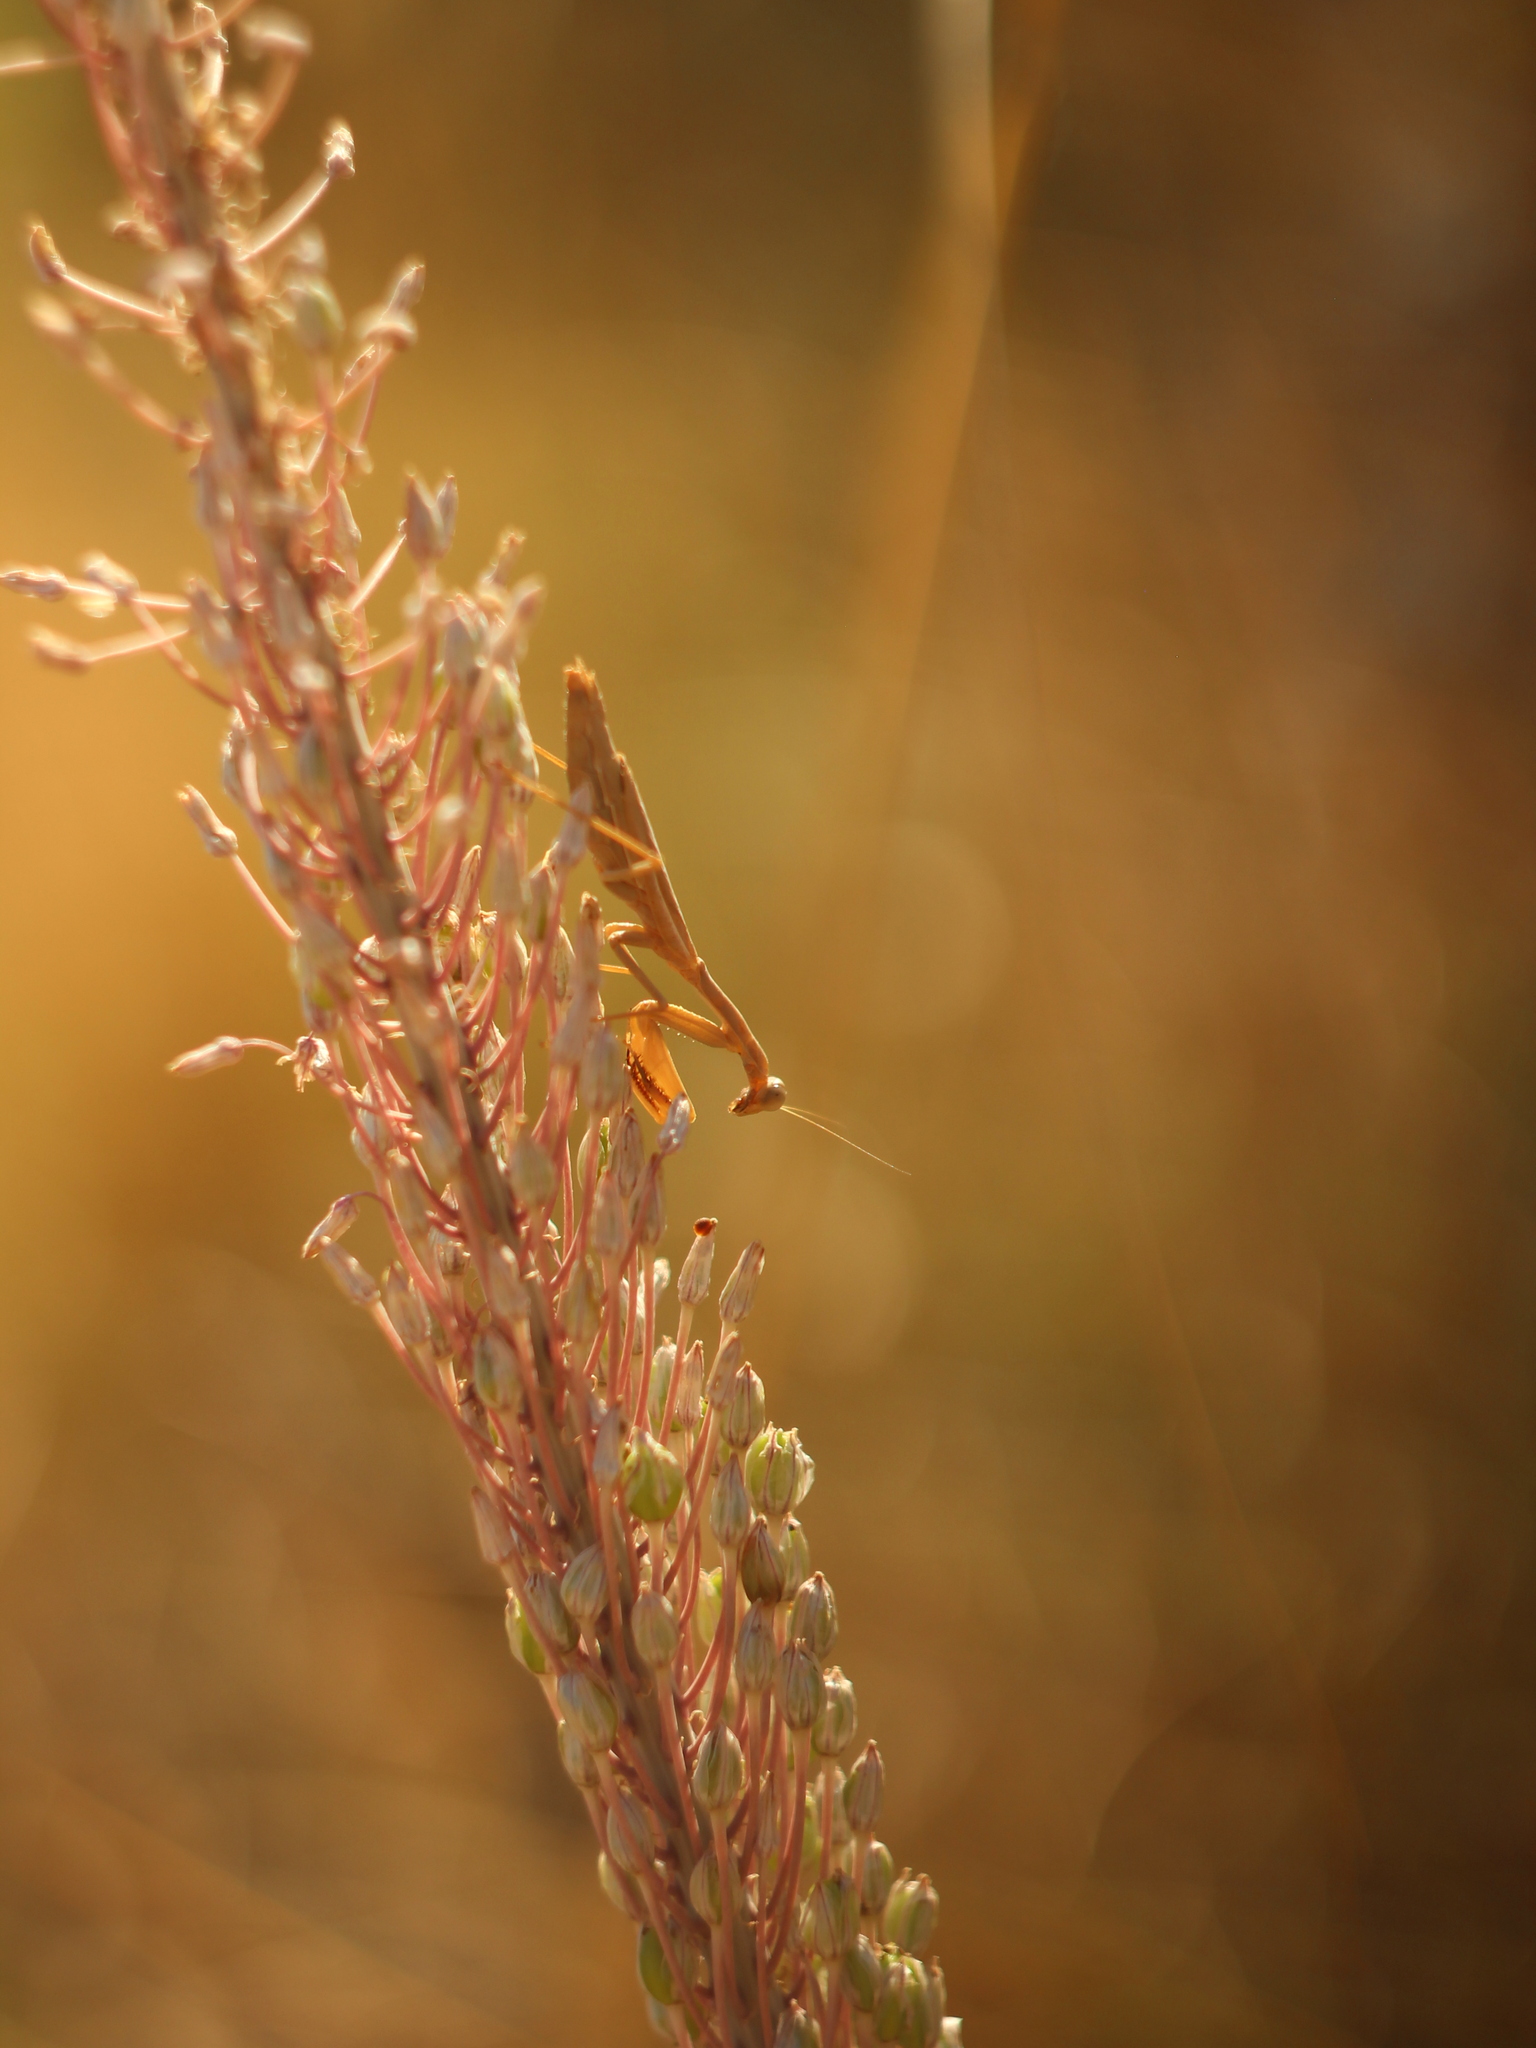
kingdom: Animalia
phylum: Arthropoda
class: Insecta
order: Mantodea
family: Eremiaphilidae
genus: Iris
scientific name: Iris oratoria
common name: Mediterranean mantis
